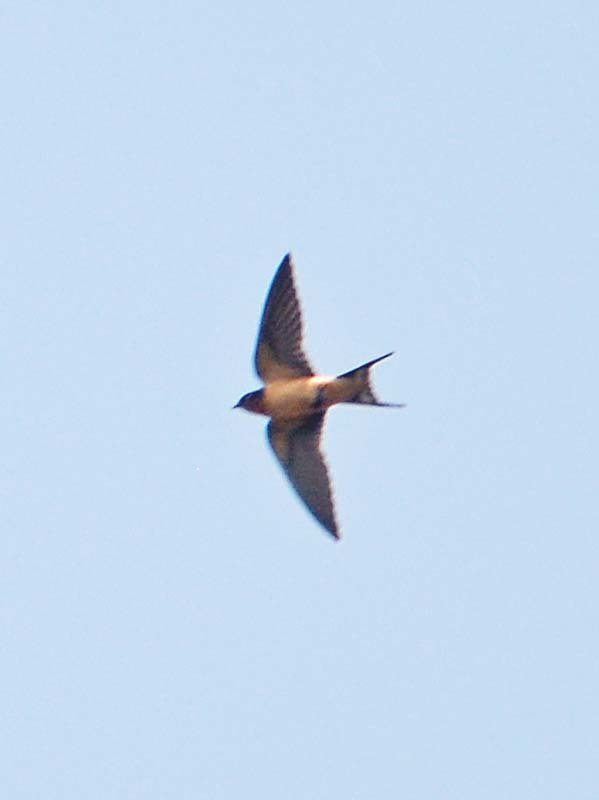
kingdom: Animalia
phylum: Chordata
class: Aves
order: Passeriformes
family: Hirundinidae
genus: Hirundo
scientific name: Hirundo rustica
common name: Barn swallow
